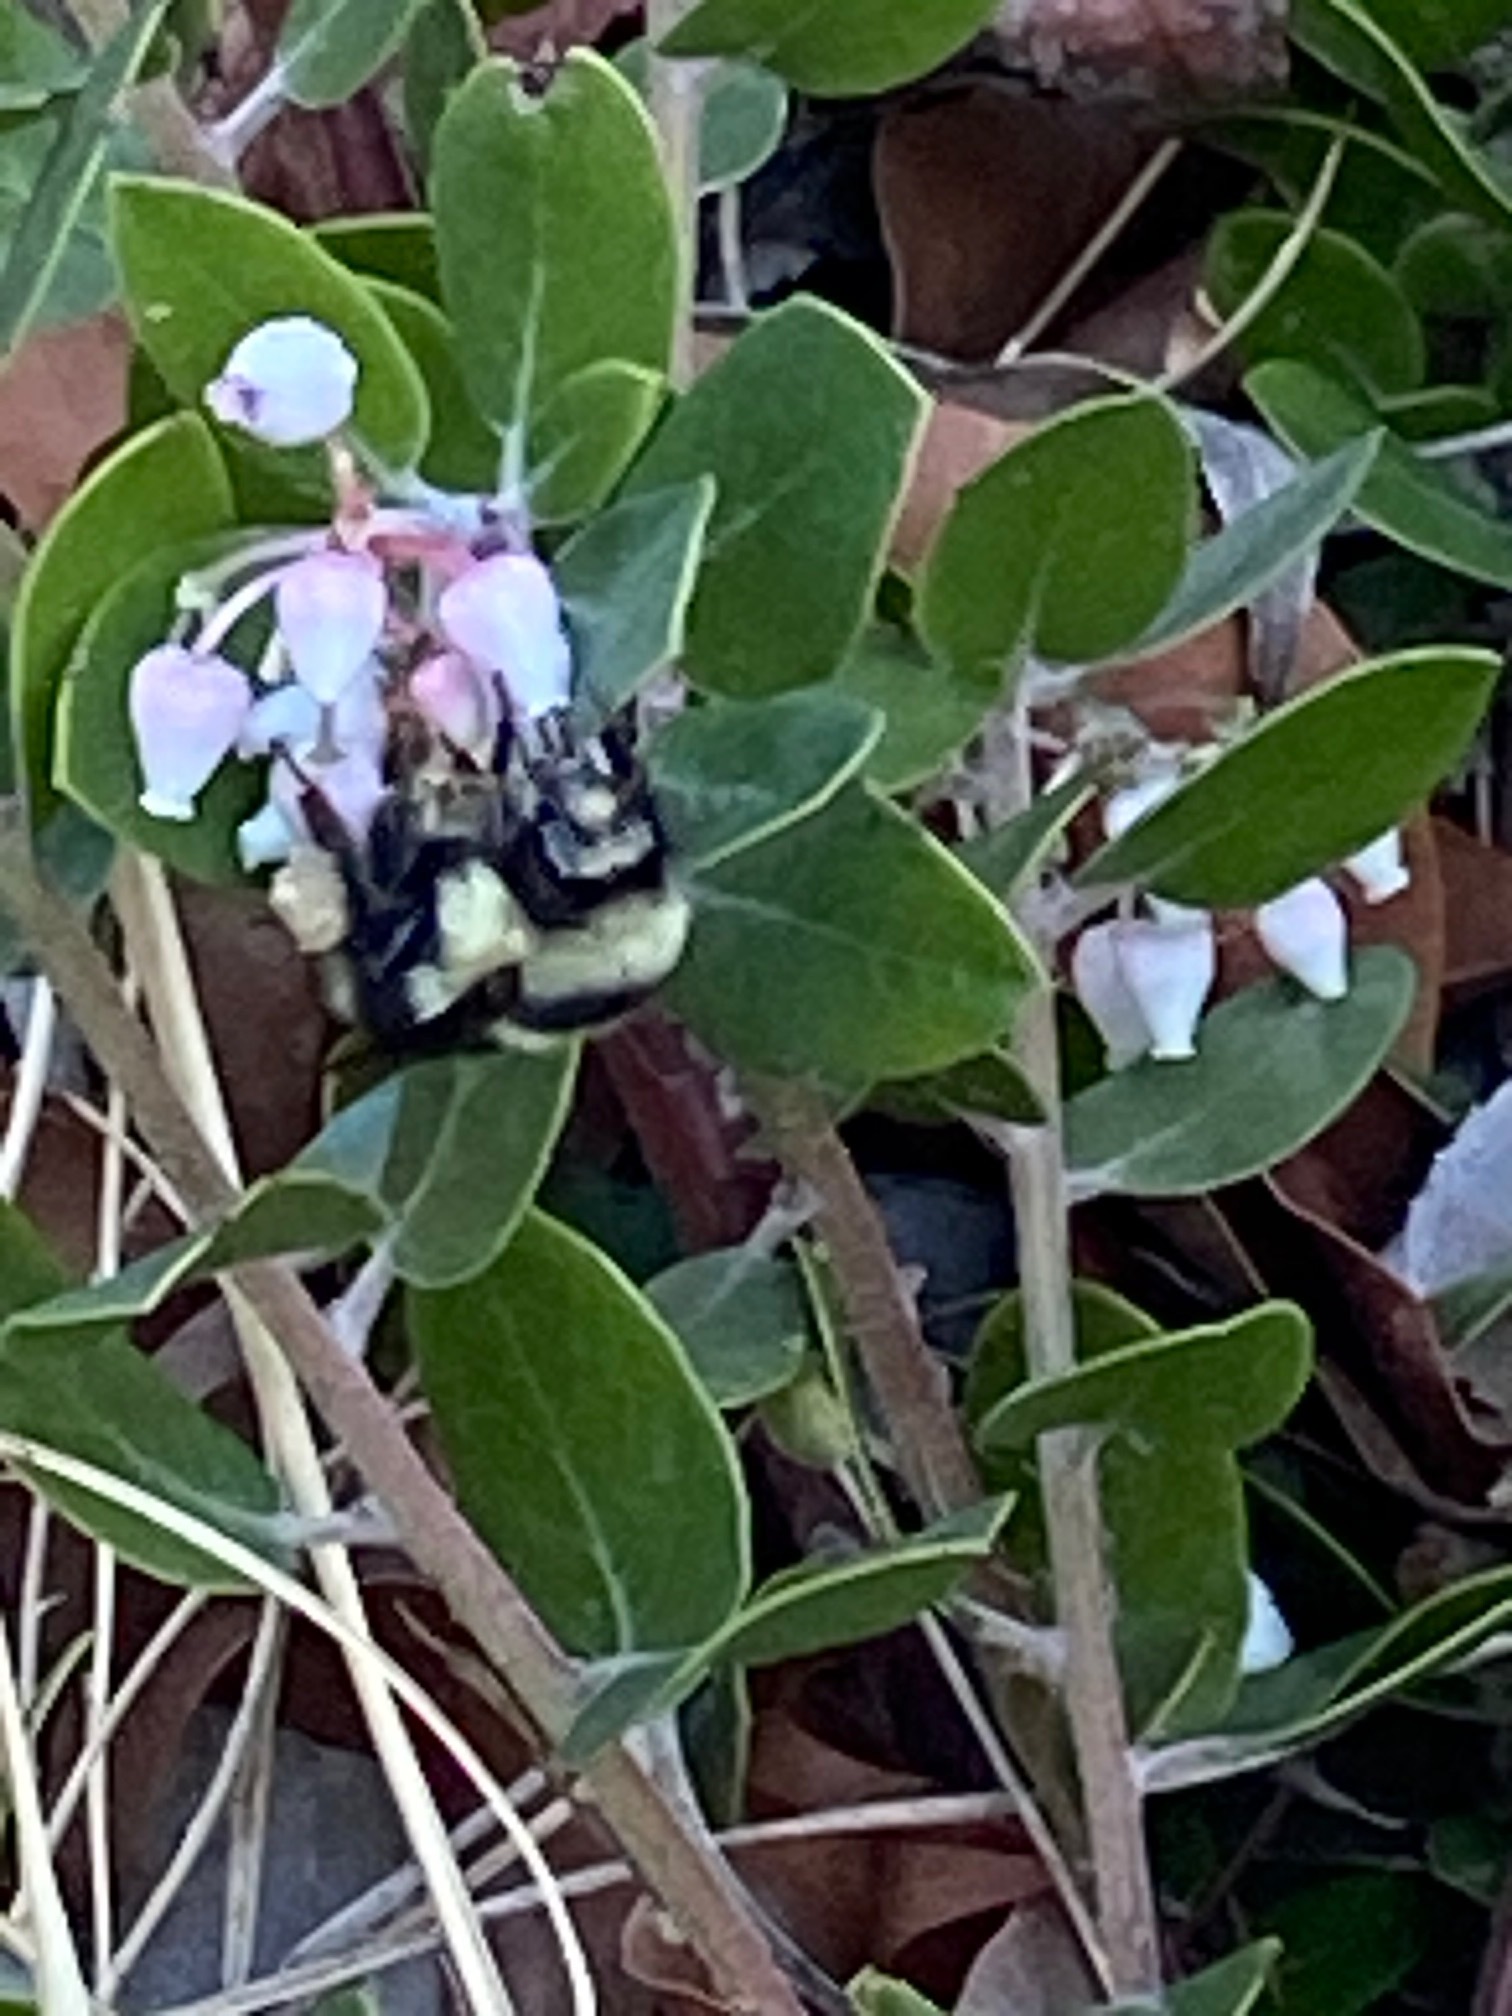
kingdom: Animalia
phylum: Arthropoda
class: Insecta
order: Hymenoptera
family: Apidae
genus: Bombus
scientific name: Bombus melanopygus
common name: Black tail bumble bee
